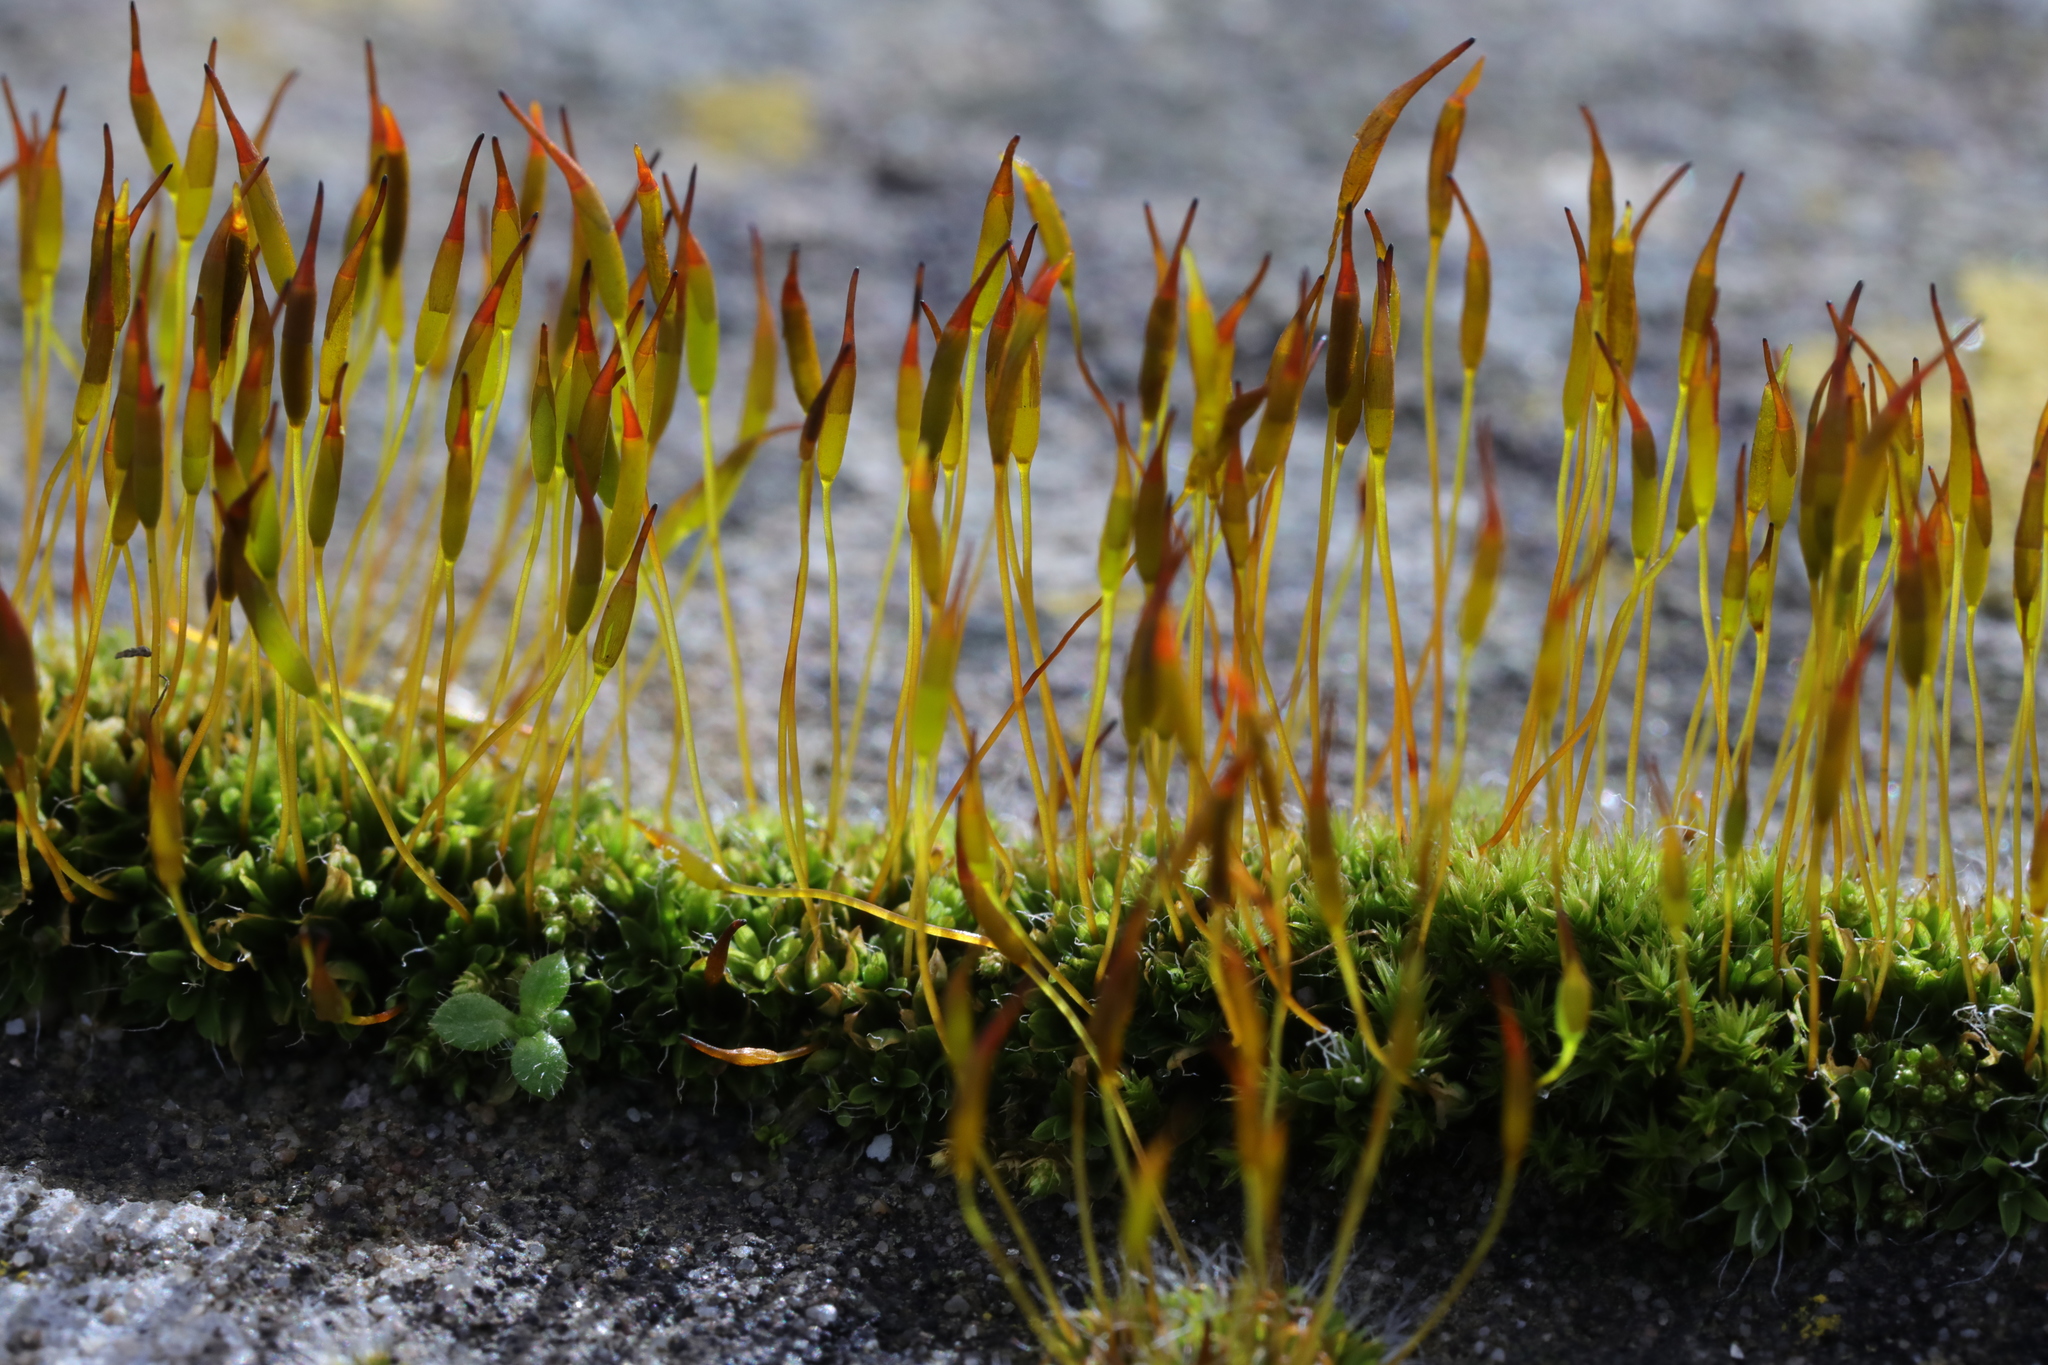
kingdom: Plantae
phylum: Bryophyta
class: Bryopsida
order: Pottiales
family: Pottiaceae
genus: Tortula
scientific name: Tortula muralis
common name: Wall screw-moss
